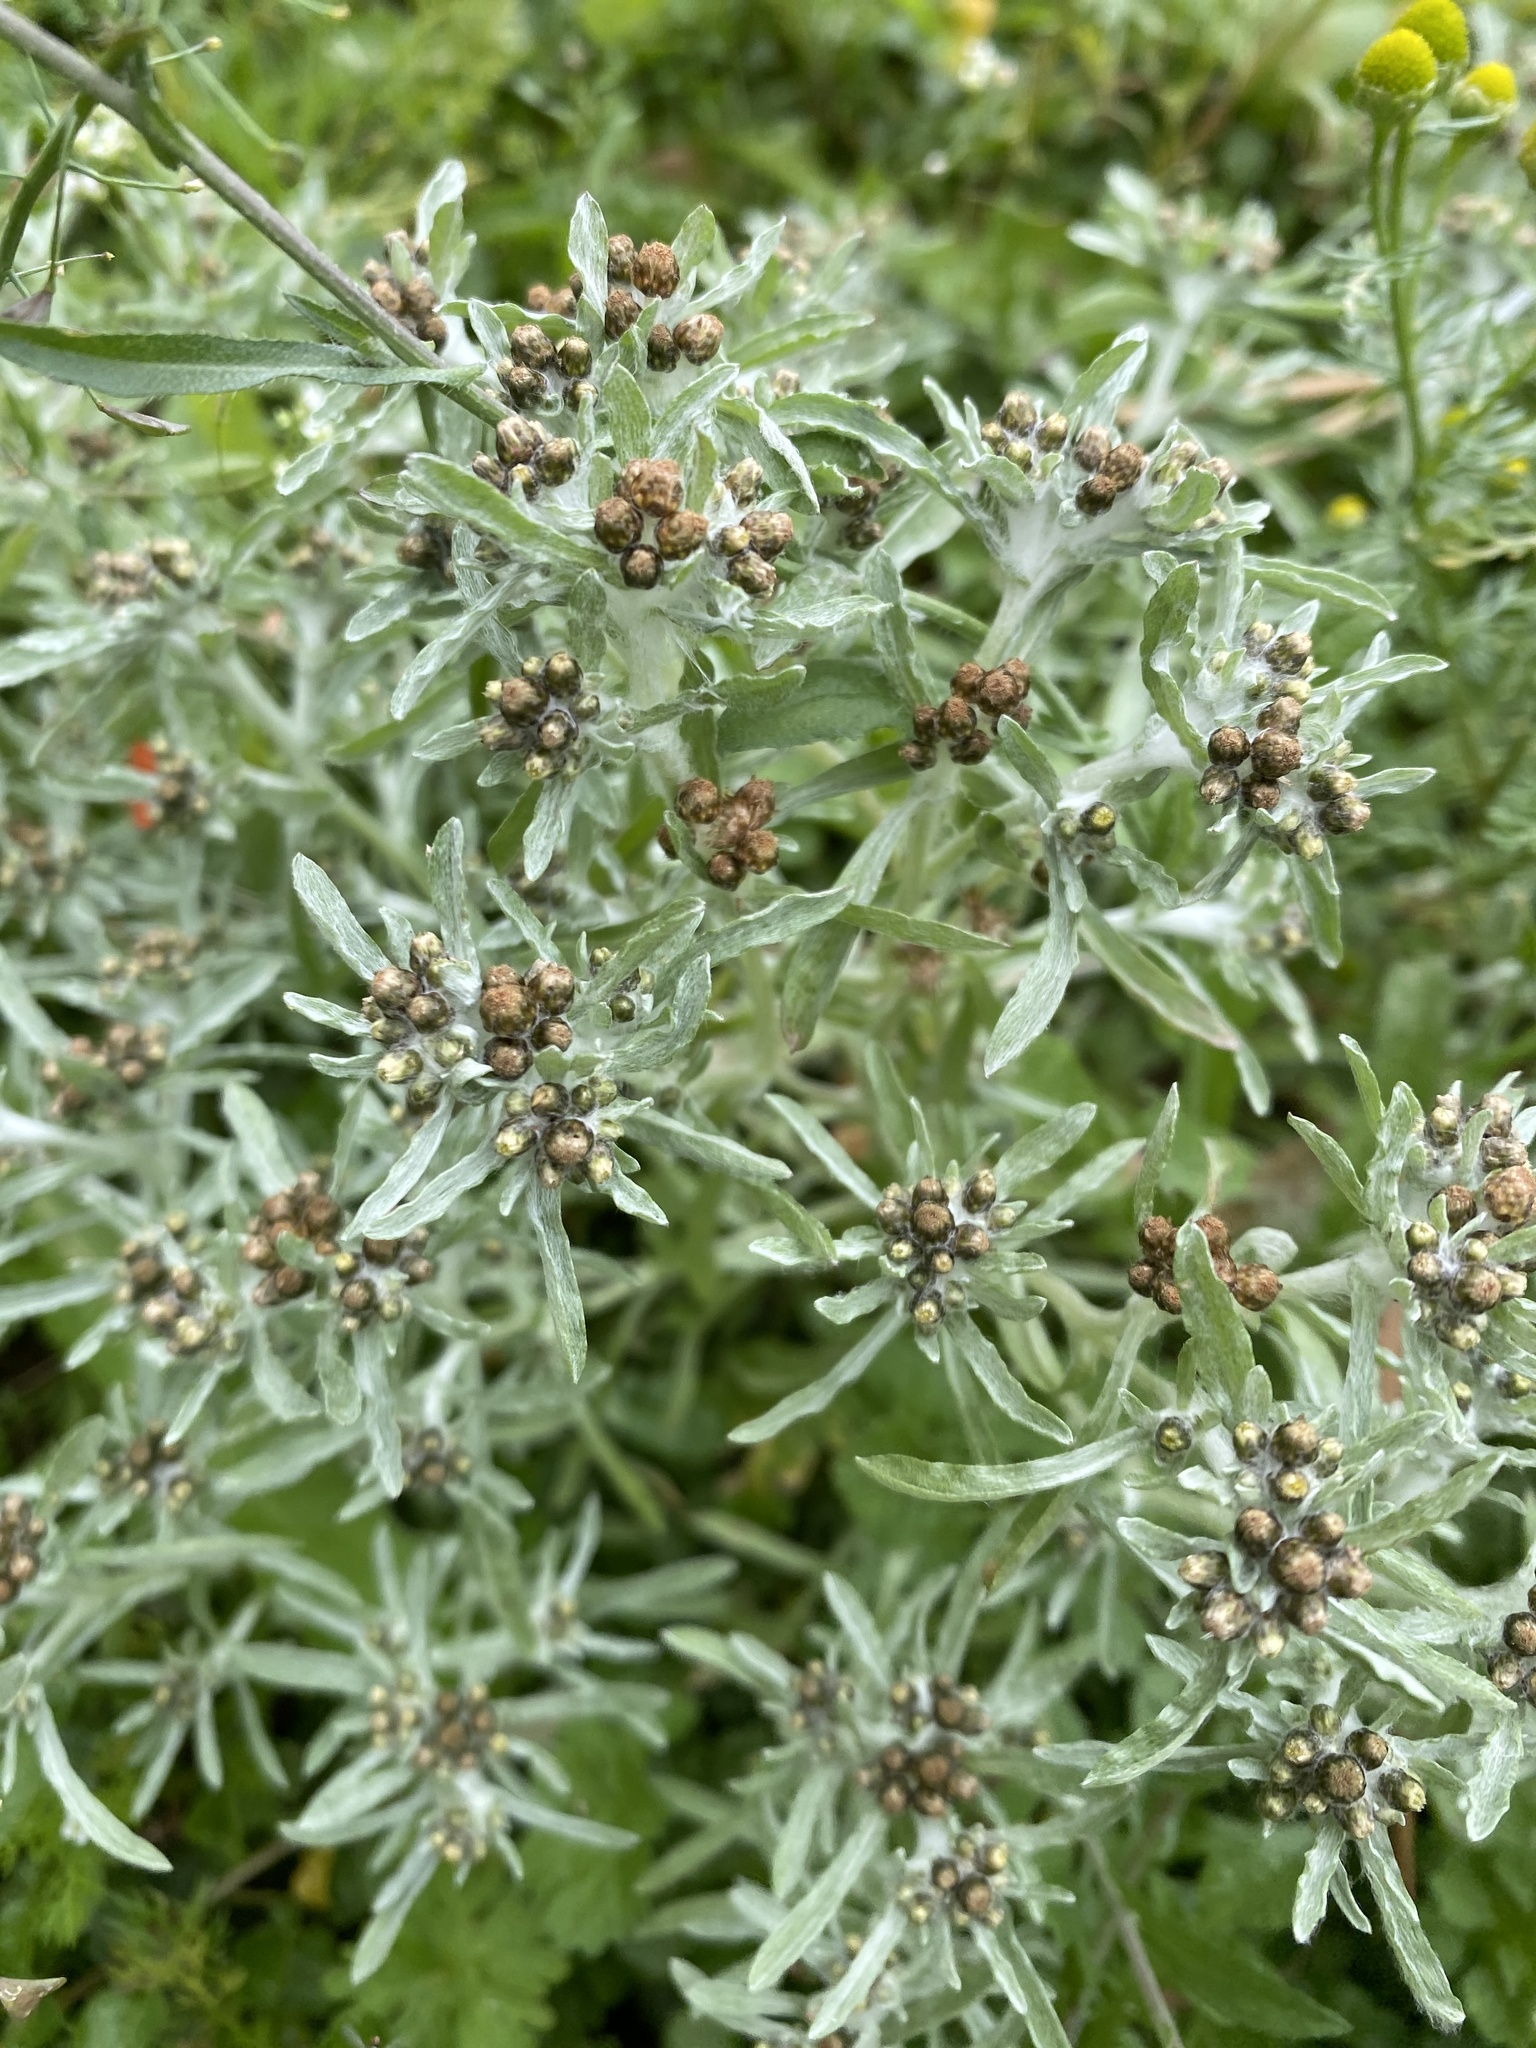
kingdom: Plantae
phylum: Tracheophyta
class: Magnoliopsida
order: Asterales
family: Asteraceae
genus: Gnaphalium
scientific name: Gnaphalium uliginosum
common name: Marsh cudweed
